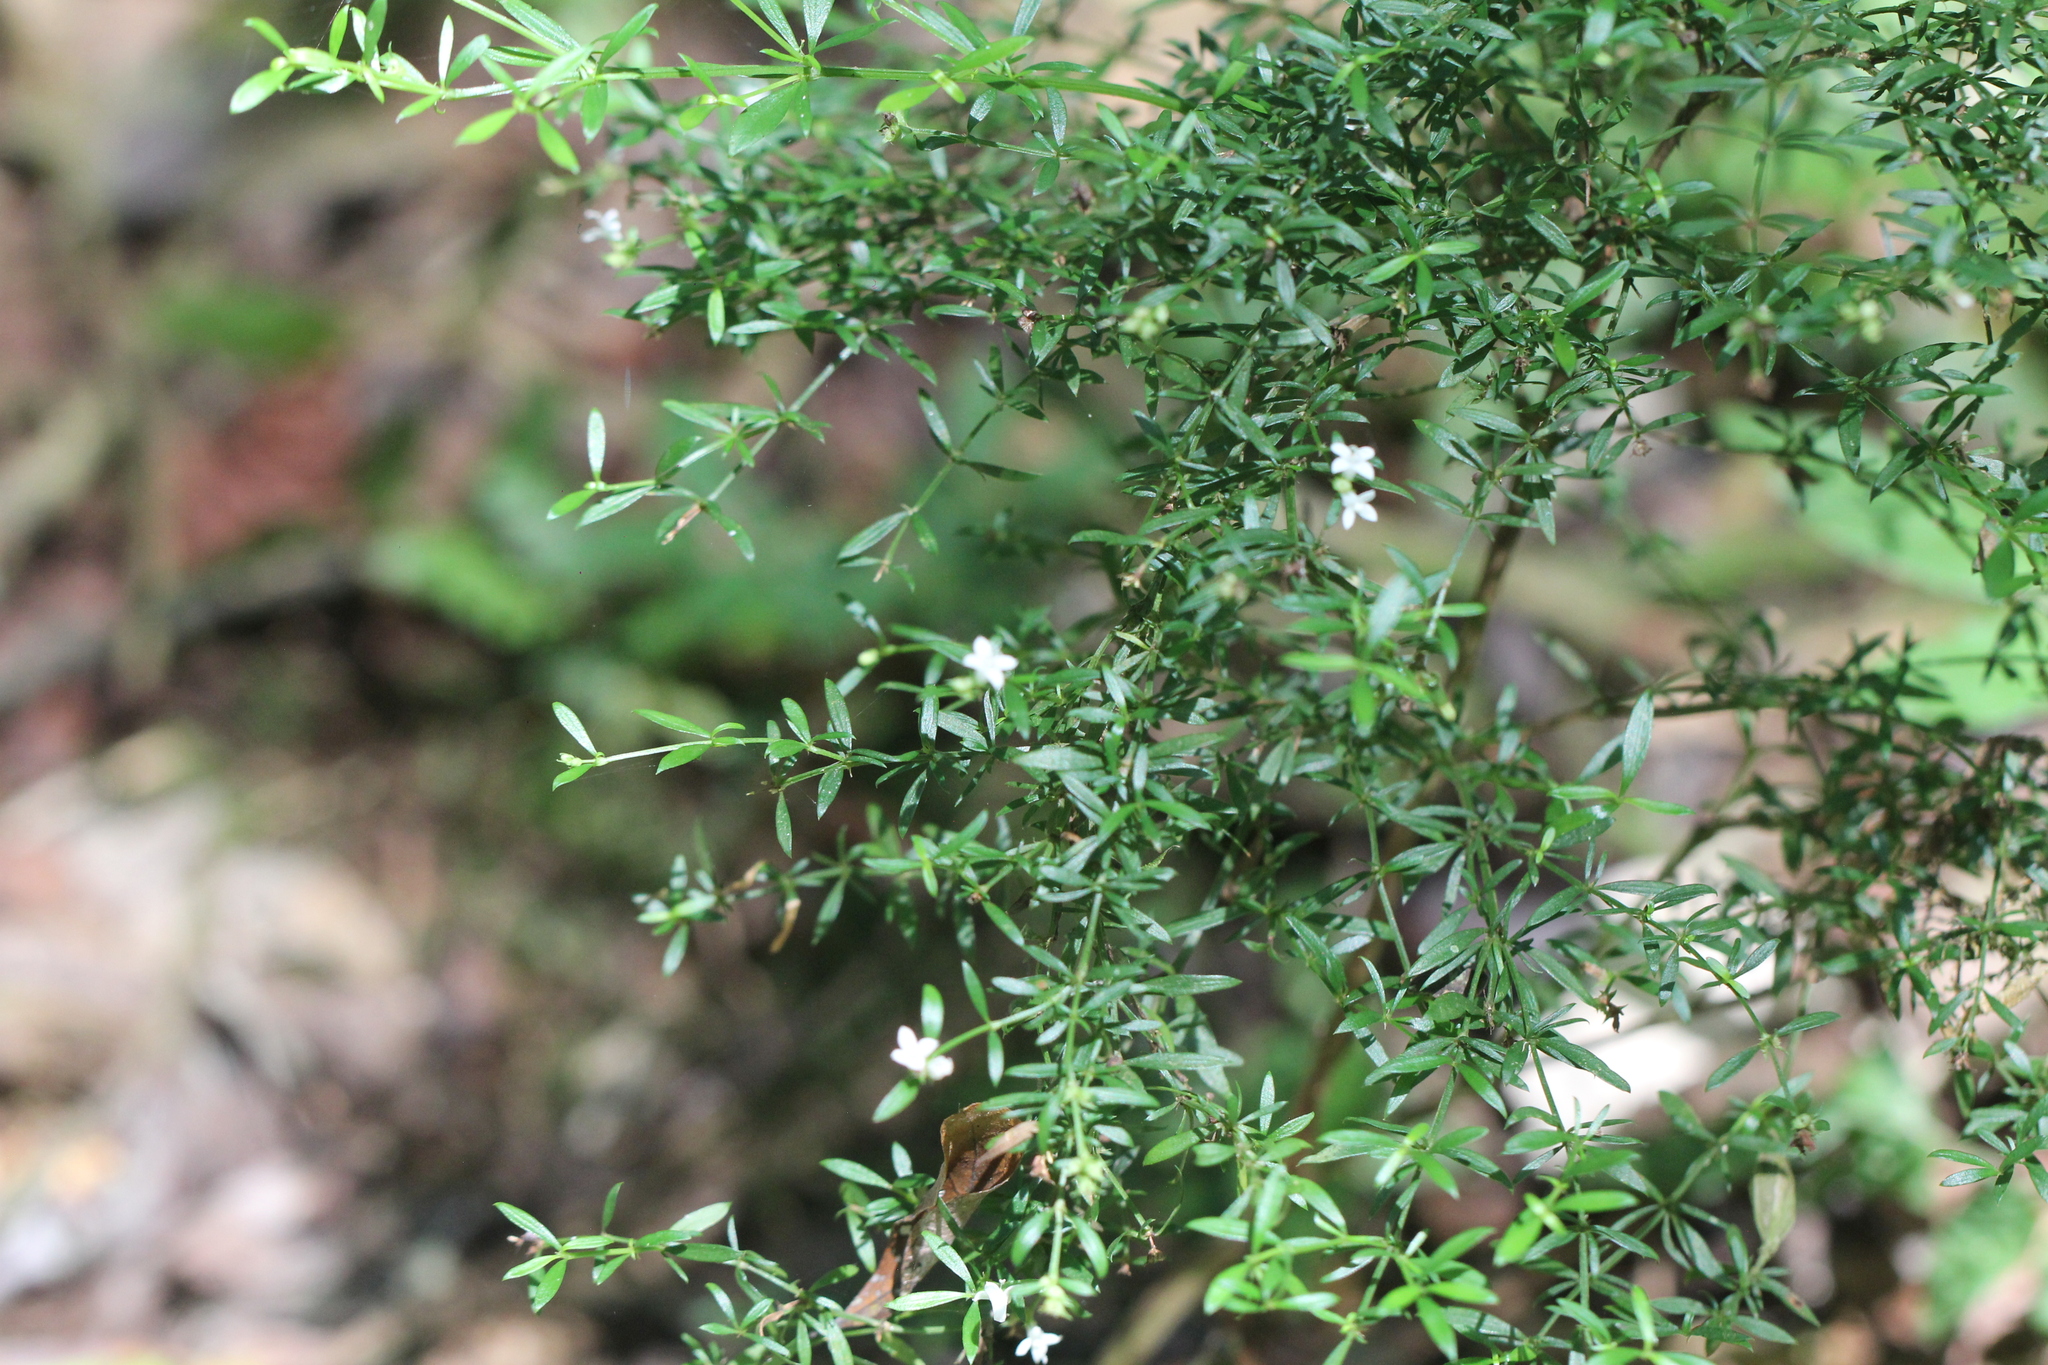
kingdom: Plantae
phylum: Tracheophyta
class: Magnoliopsida
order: Gentianales
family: Rubiaceae
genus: Galianthe
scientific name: Galianthe brasiliensis
